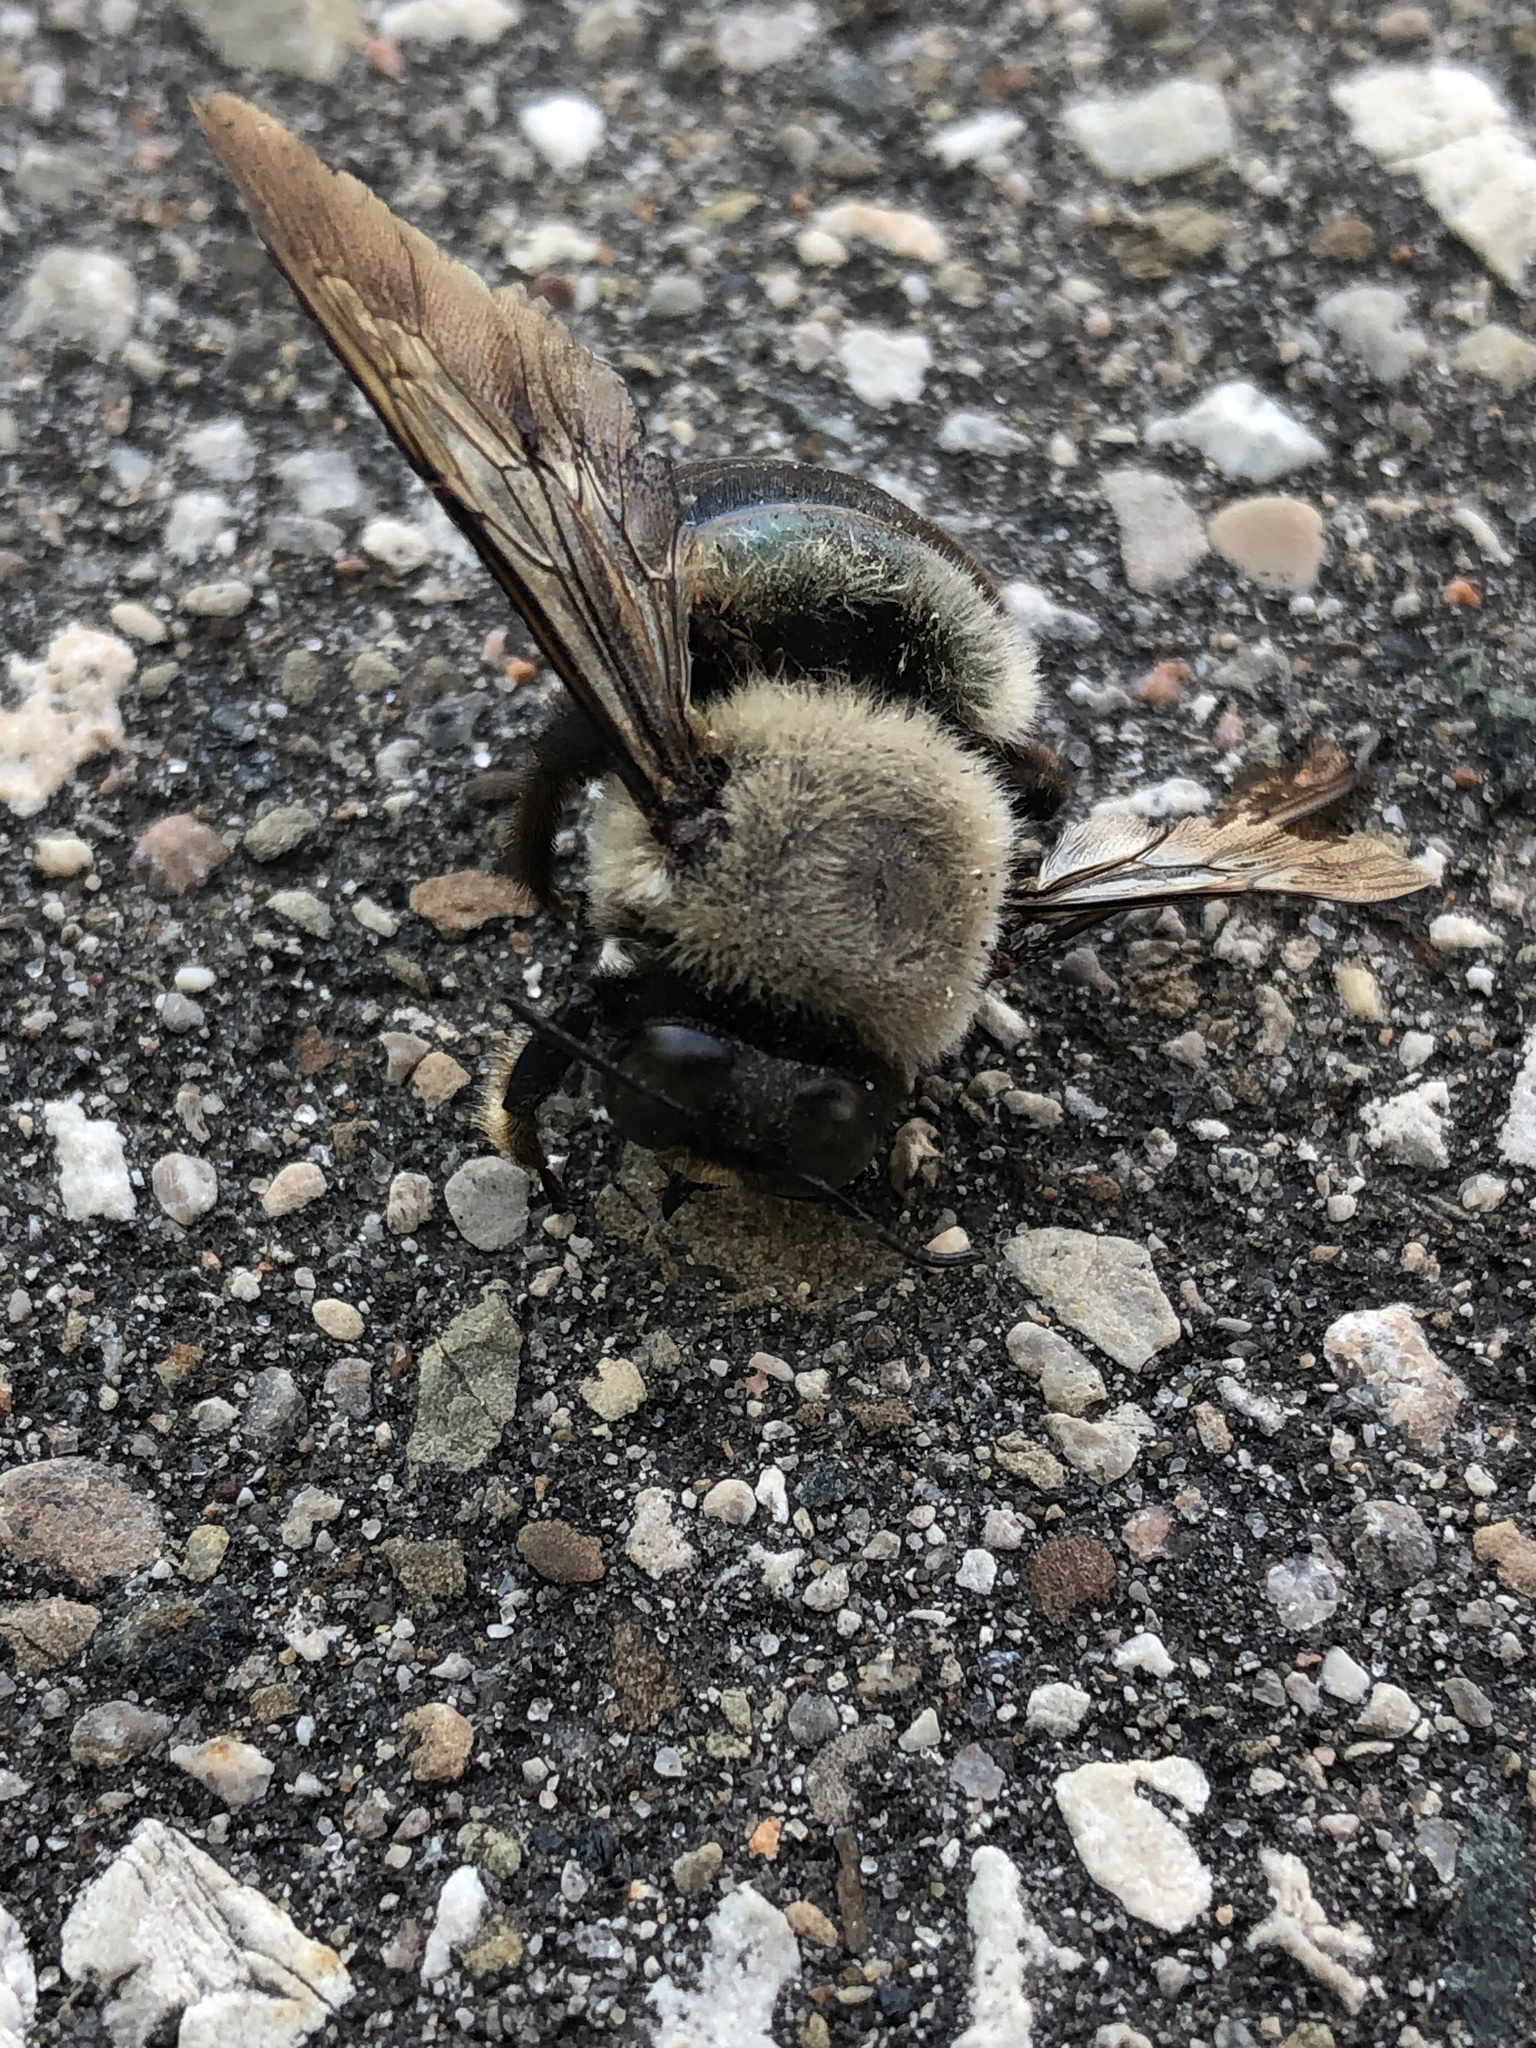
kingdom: Animalia
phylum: Arthropoda
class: Insecta
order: Hymenoptera
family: Apidae
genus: Xylocopa
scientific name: Xylocopa virginica
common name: Carpenter bee
